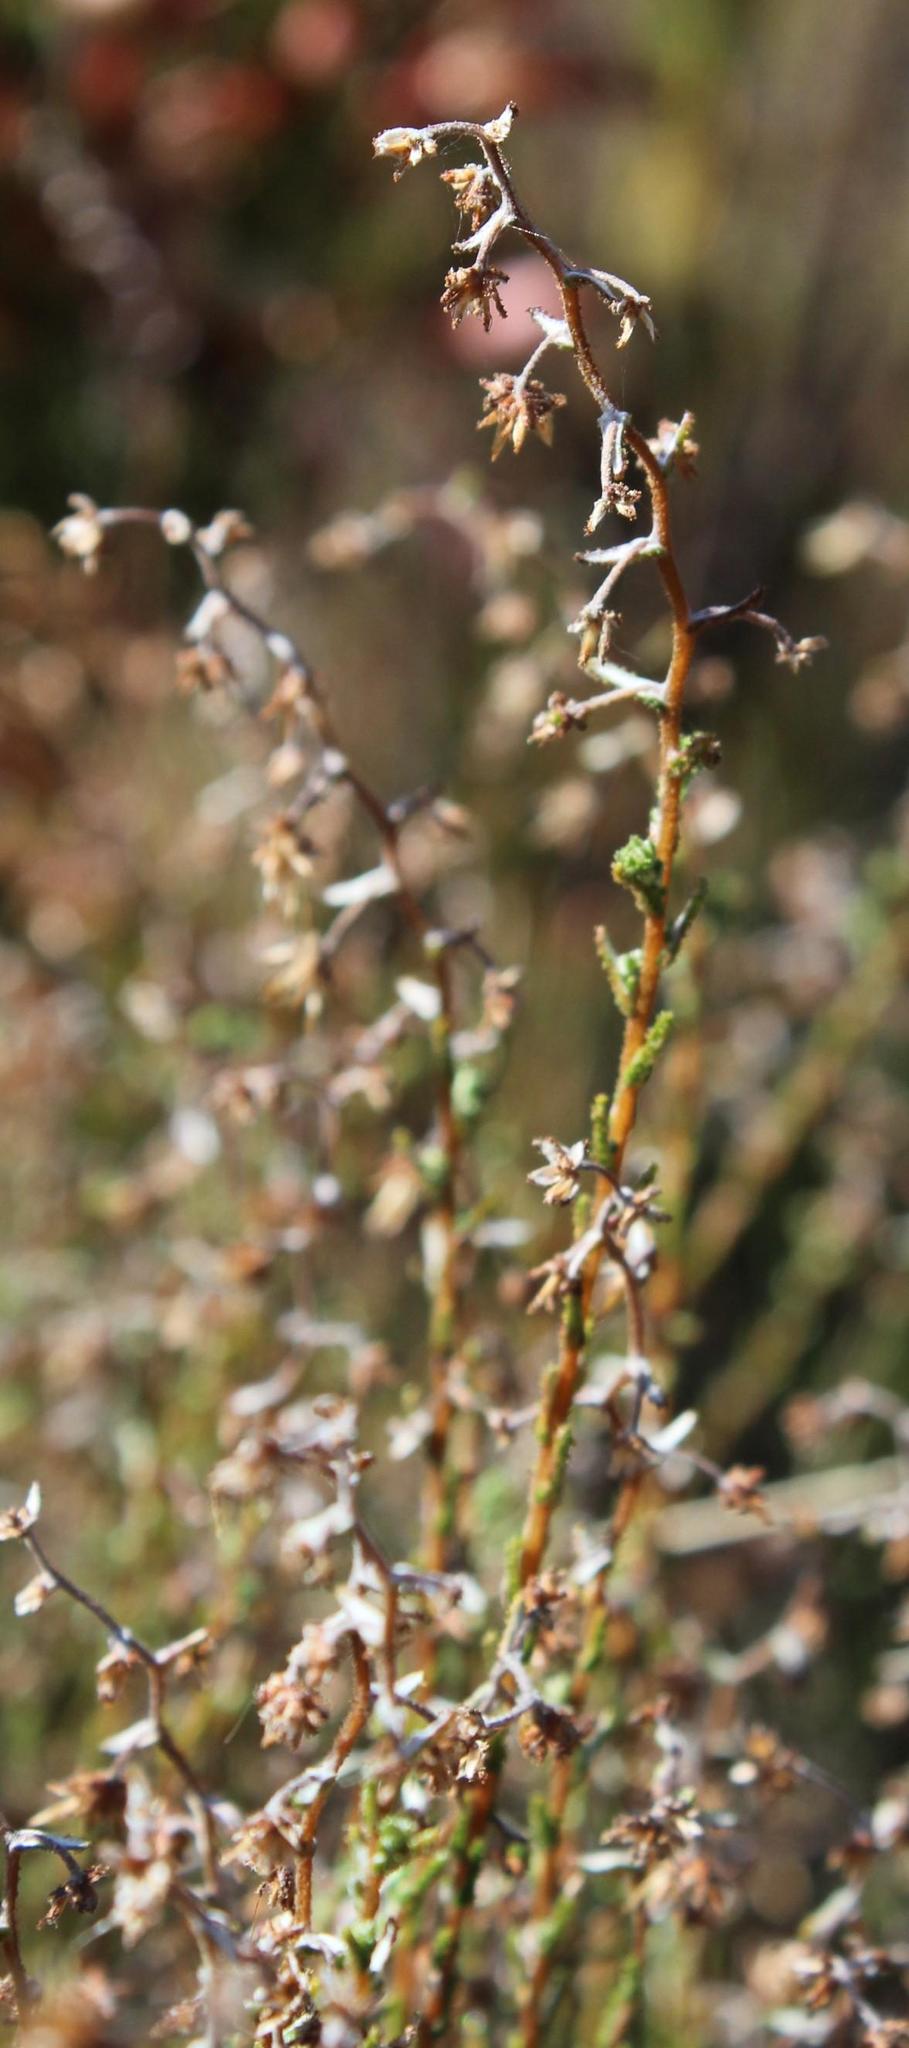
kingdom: Plantae
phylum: Tracheophyta
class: Magnoliopsida
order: Asterales
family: Asteraceae
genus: Seriphium
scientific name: Seriphium plumosum
